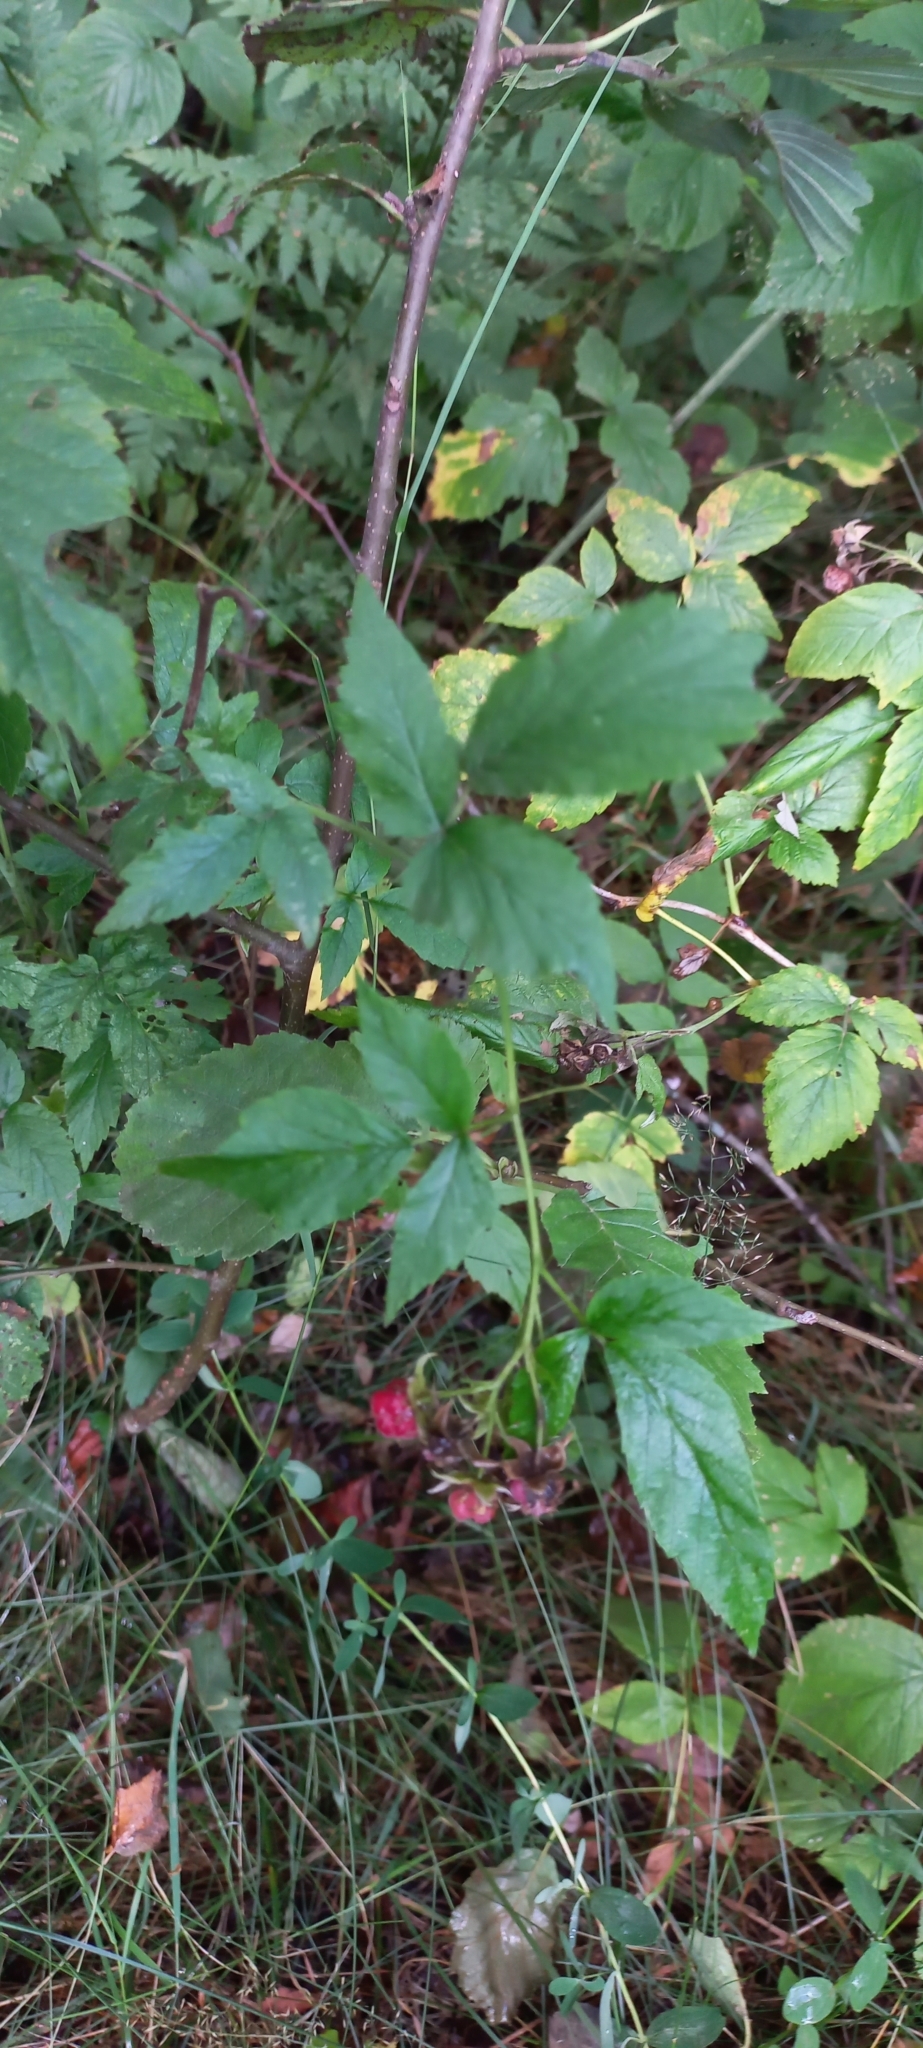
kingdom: Plantae
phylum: Tracheophyta
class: Magnoliopsida
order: Rosales
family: Rosaceae
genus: Rubus
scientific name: Rubus idaeus
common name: Raspberry
